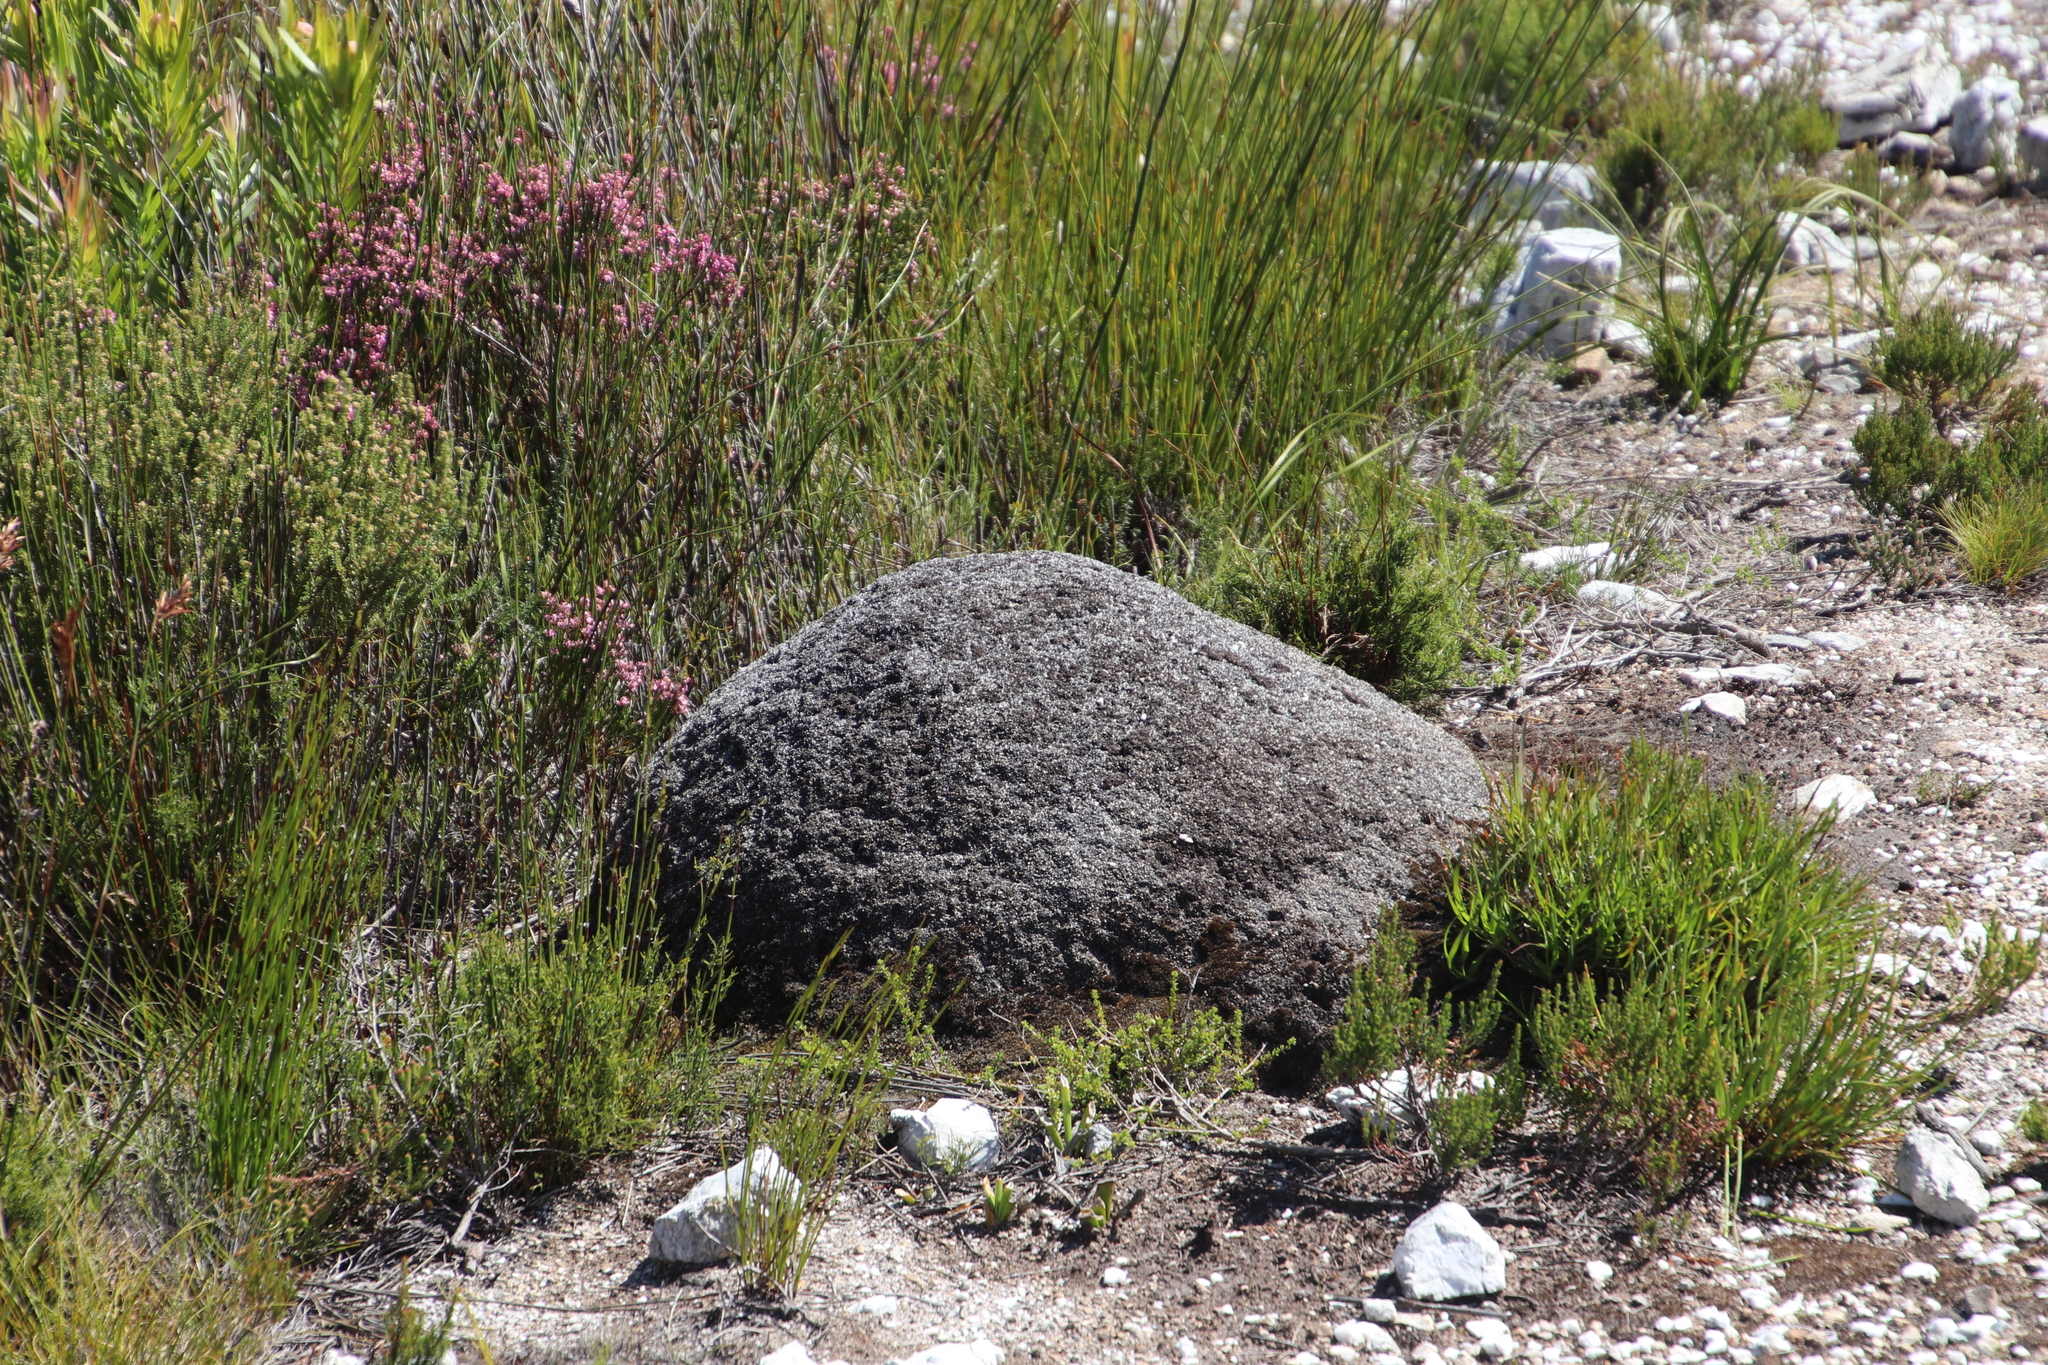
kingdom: Animalia
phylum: Arthropoda
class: Insecta
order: Blattodea
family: Termitidae
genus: Amitermes
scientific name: Amitermes hastatus
